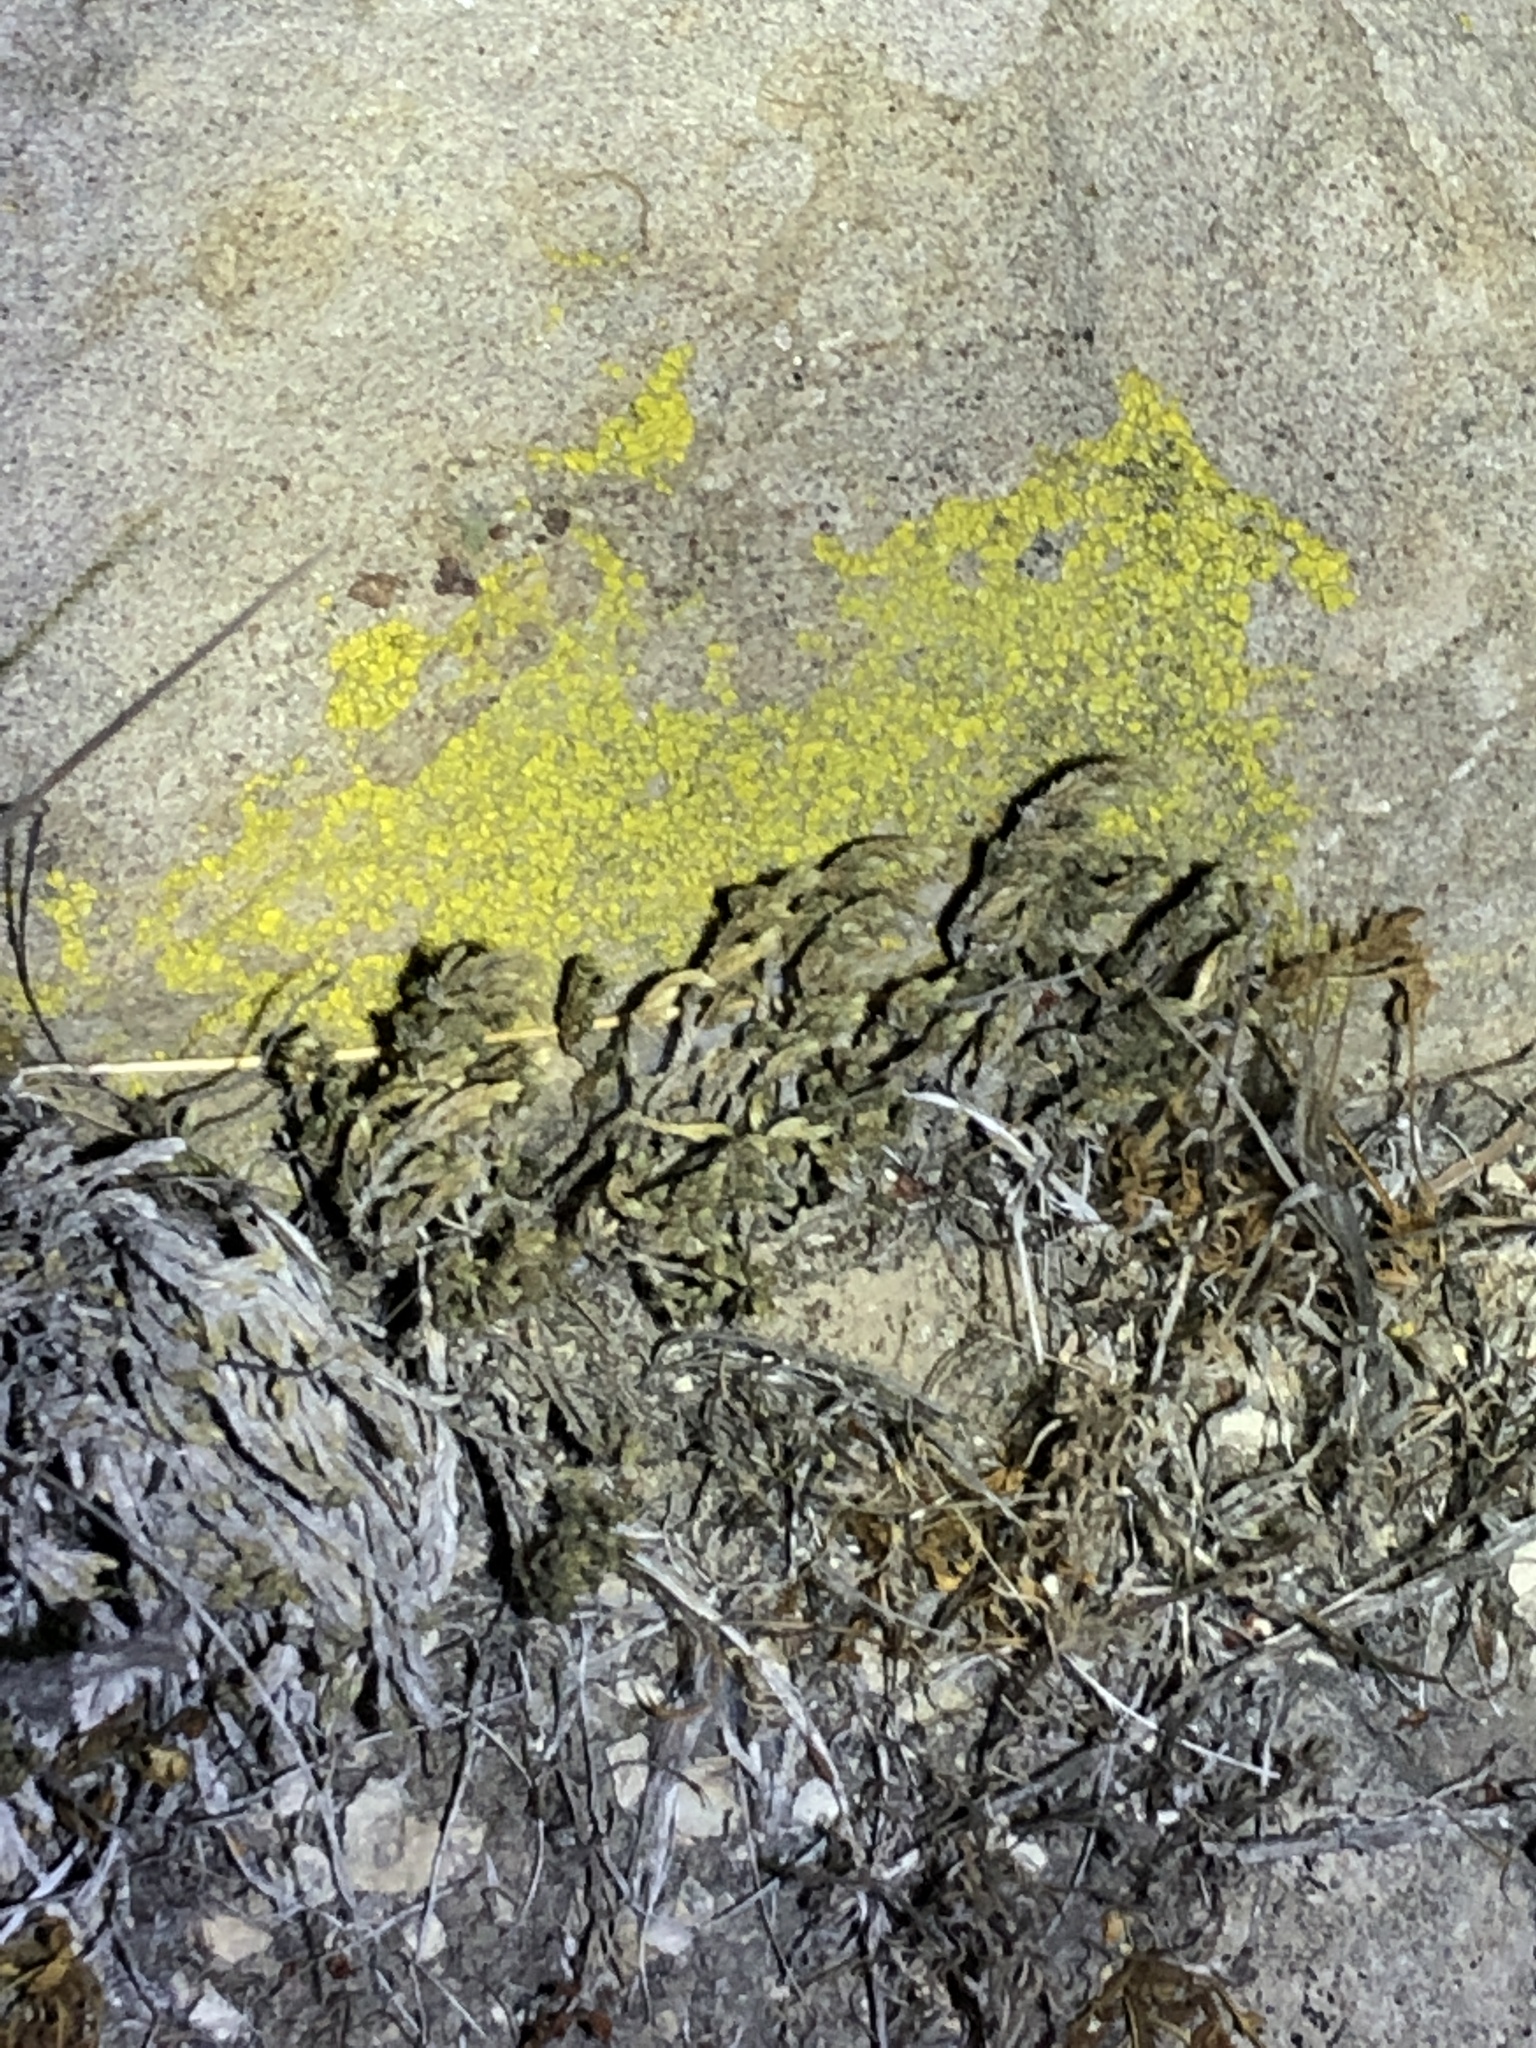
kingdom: Plantae
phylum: Tracheophyta
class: Lycopodiopsida
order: Selaginellales
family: Selaginellaceae
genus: Selaginella
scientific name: Selaginella bigelovii
